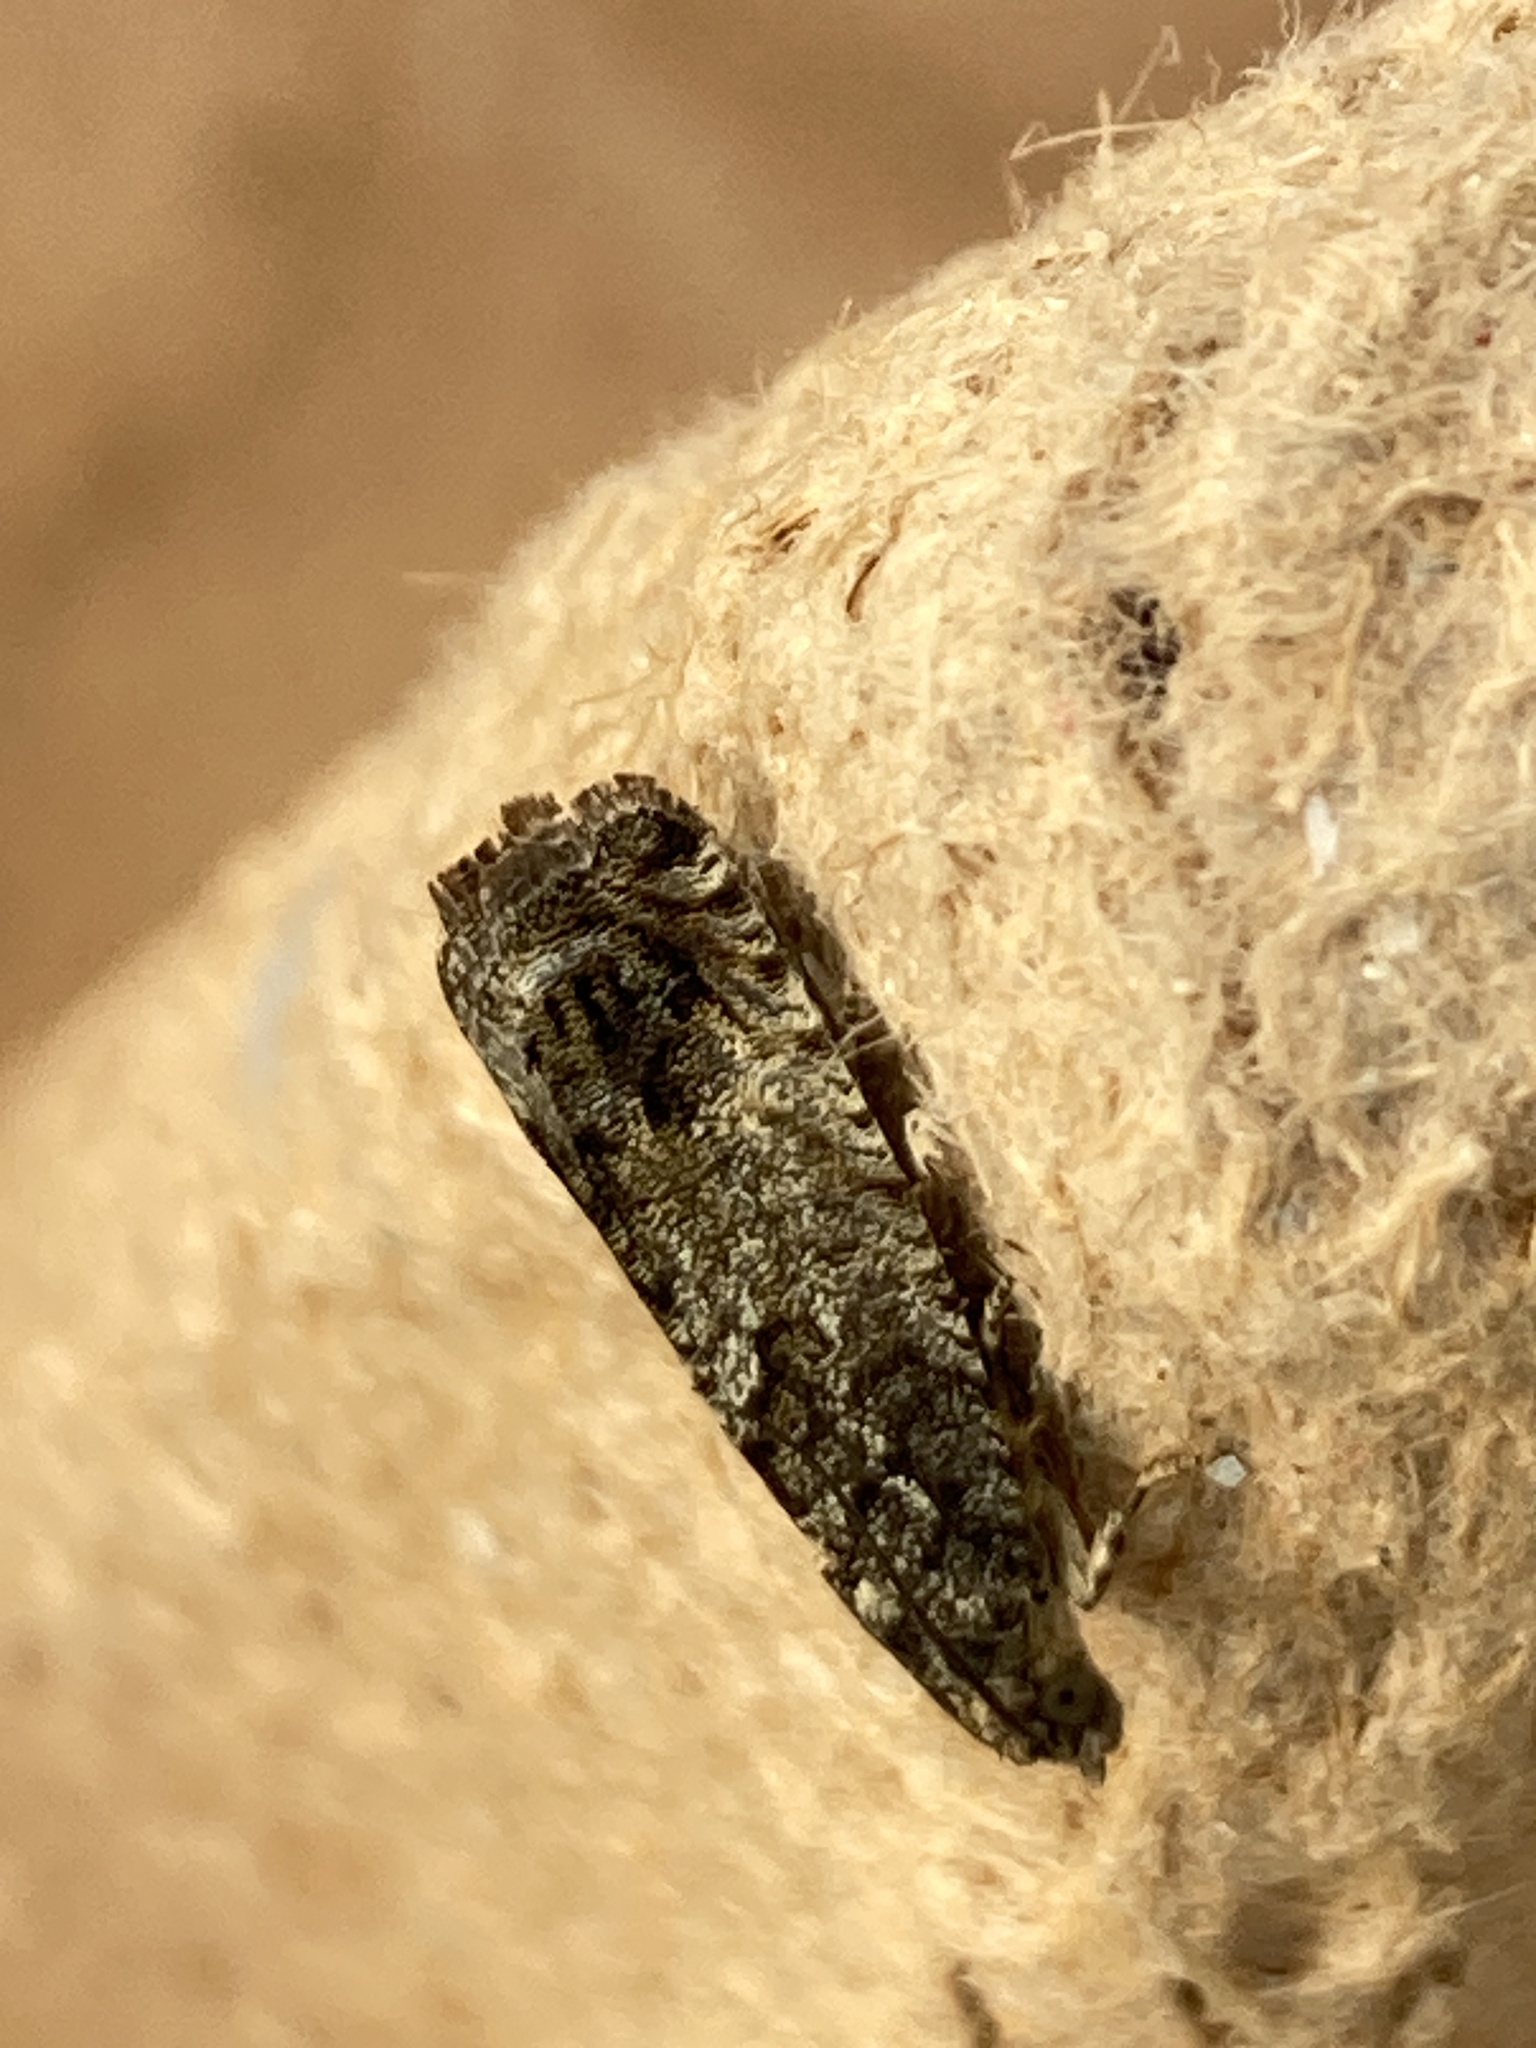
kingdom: Animalia
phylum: Arthropoda
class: Insecta
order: Lepidoptera
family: Tortricidae
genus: Cydia
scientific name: Cydia fagiglandana
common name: Large beech piercer
